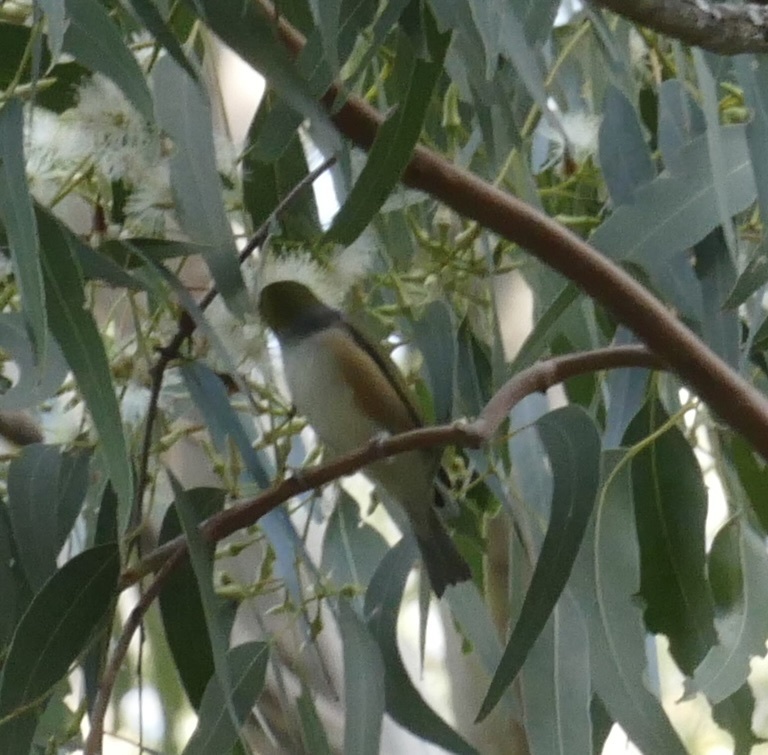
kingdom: Animalia
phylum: Chordata
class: Aves
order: Passeriformes
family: Zosteropidae
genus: Zosterops
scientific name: Zosterops lateralis
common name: Silvereye
